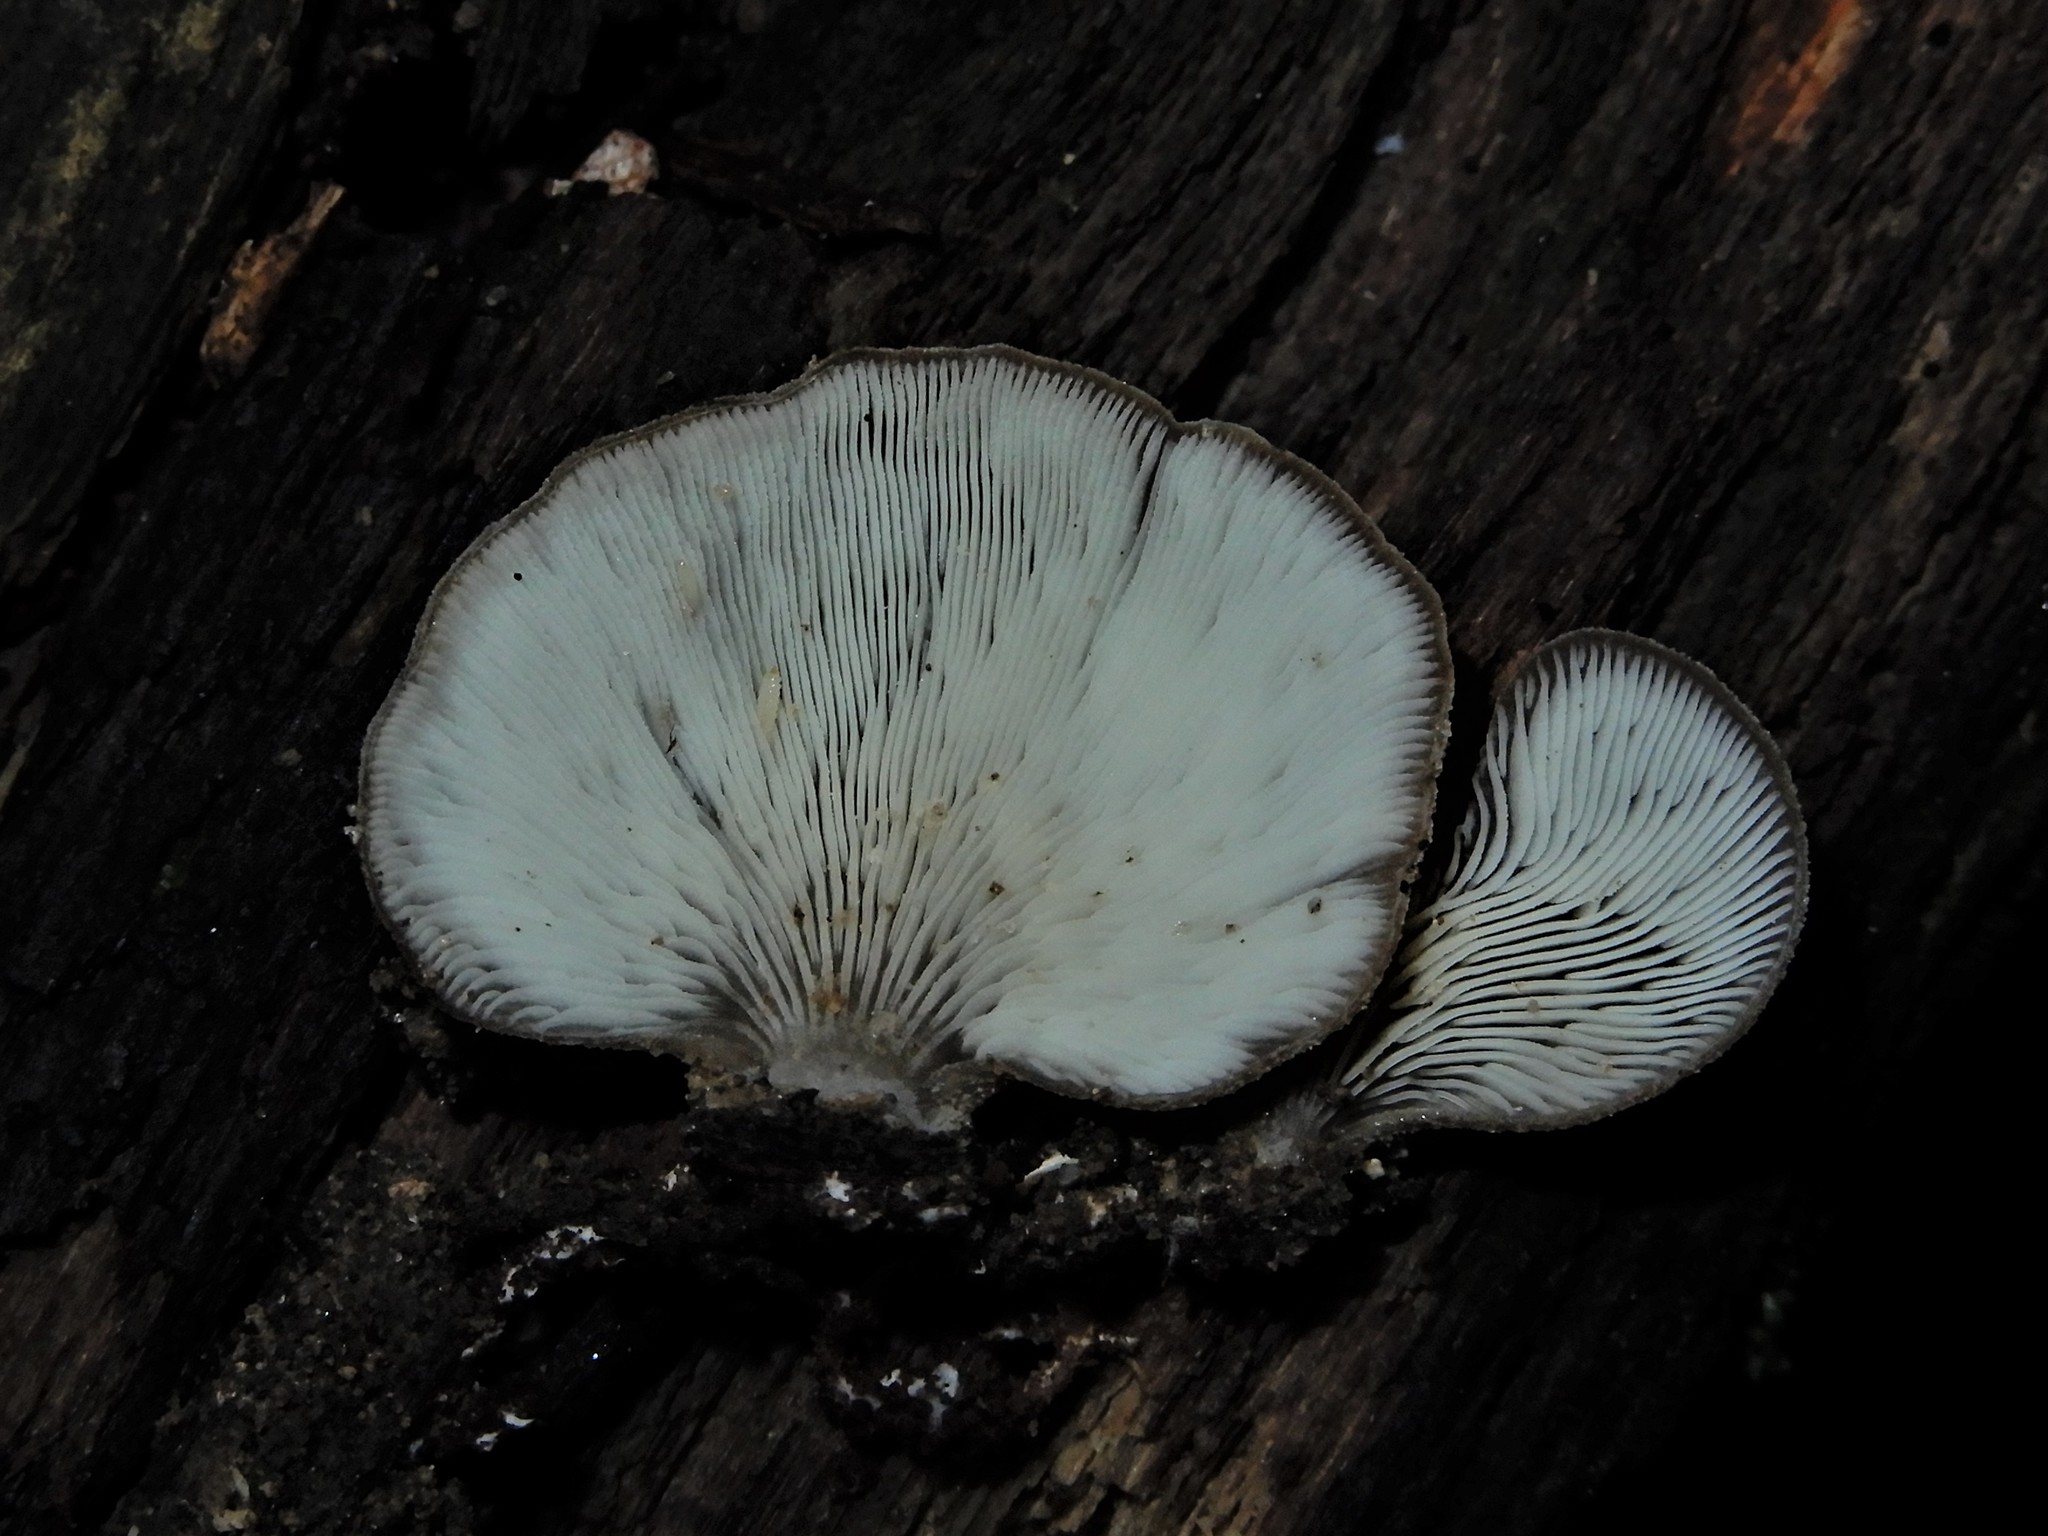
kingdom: Fungi
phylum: Basidiomycota
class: Agaricomycetes
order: Agaricales
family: Pleurotaceae
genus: Hohenbuehelia
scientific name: Hohenbuehelia luteola
